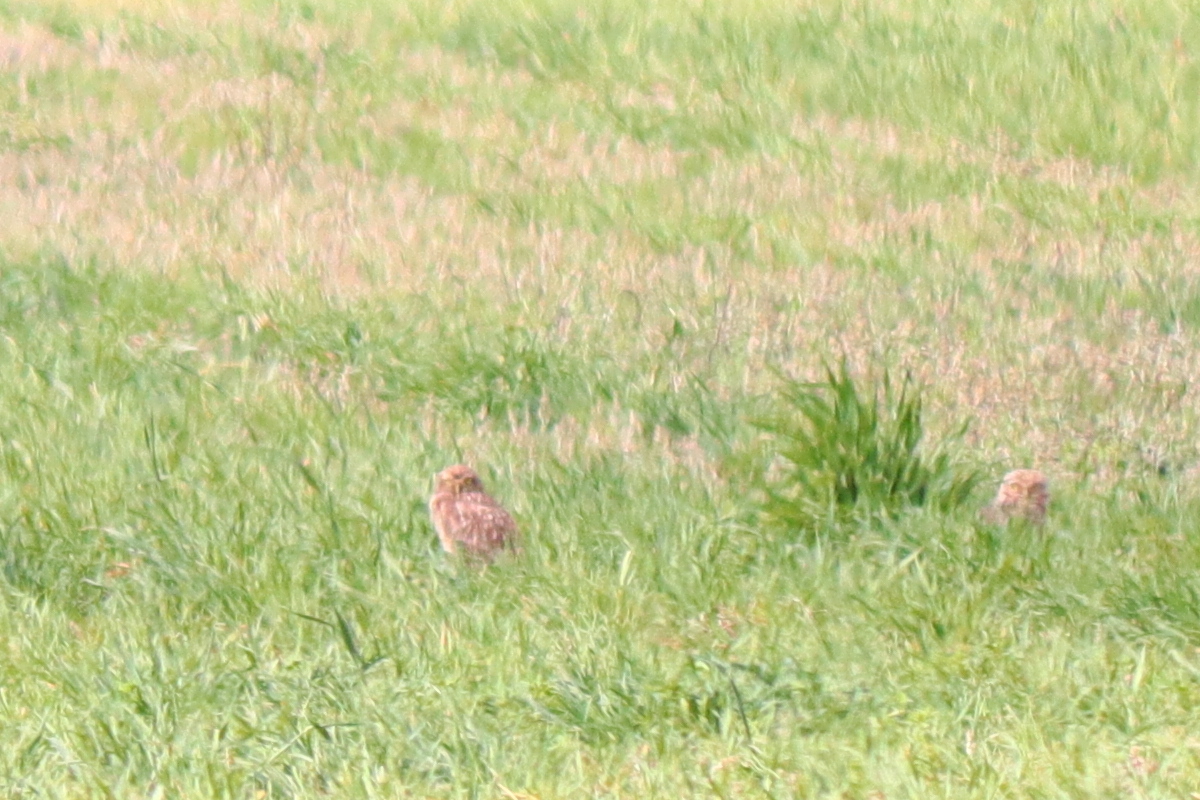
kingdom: Animalia
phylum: Chordata
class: Aves
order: Strigiformes
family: Strigidae
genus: Athene
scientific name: Athene cunicularia
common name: Burrowing owl
